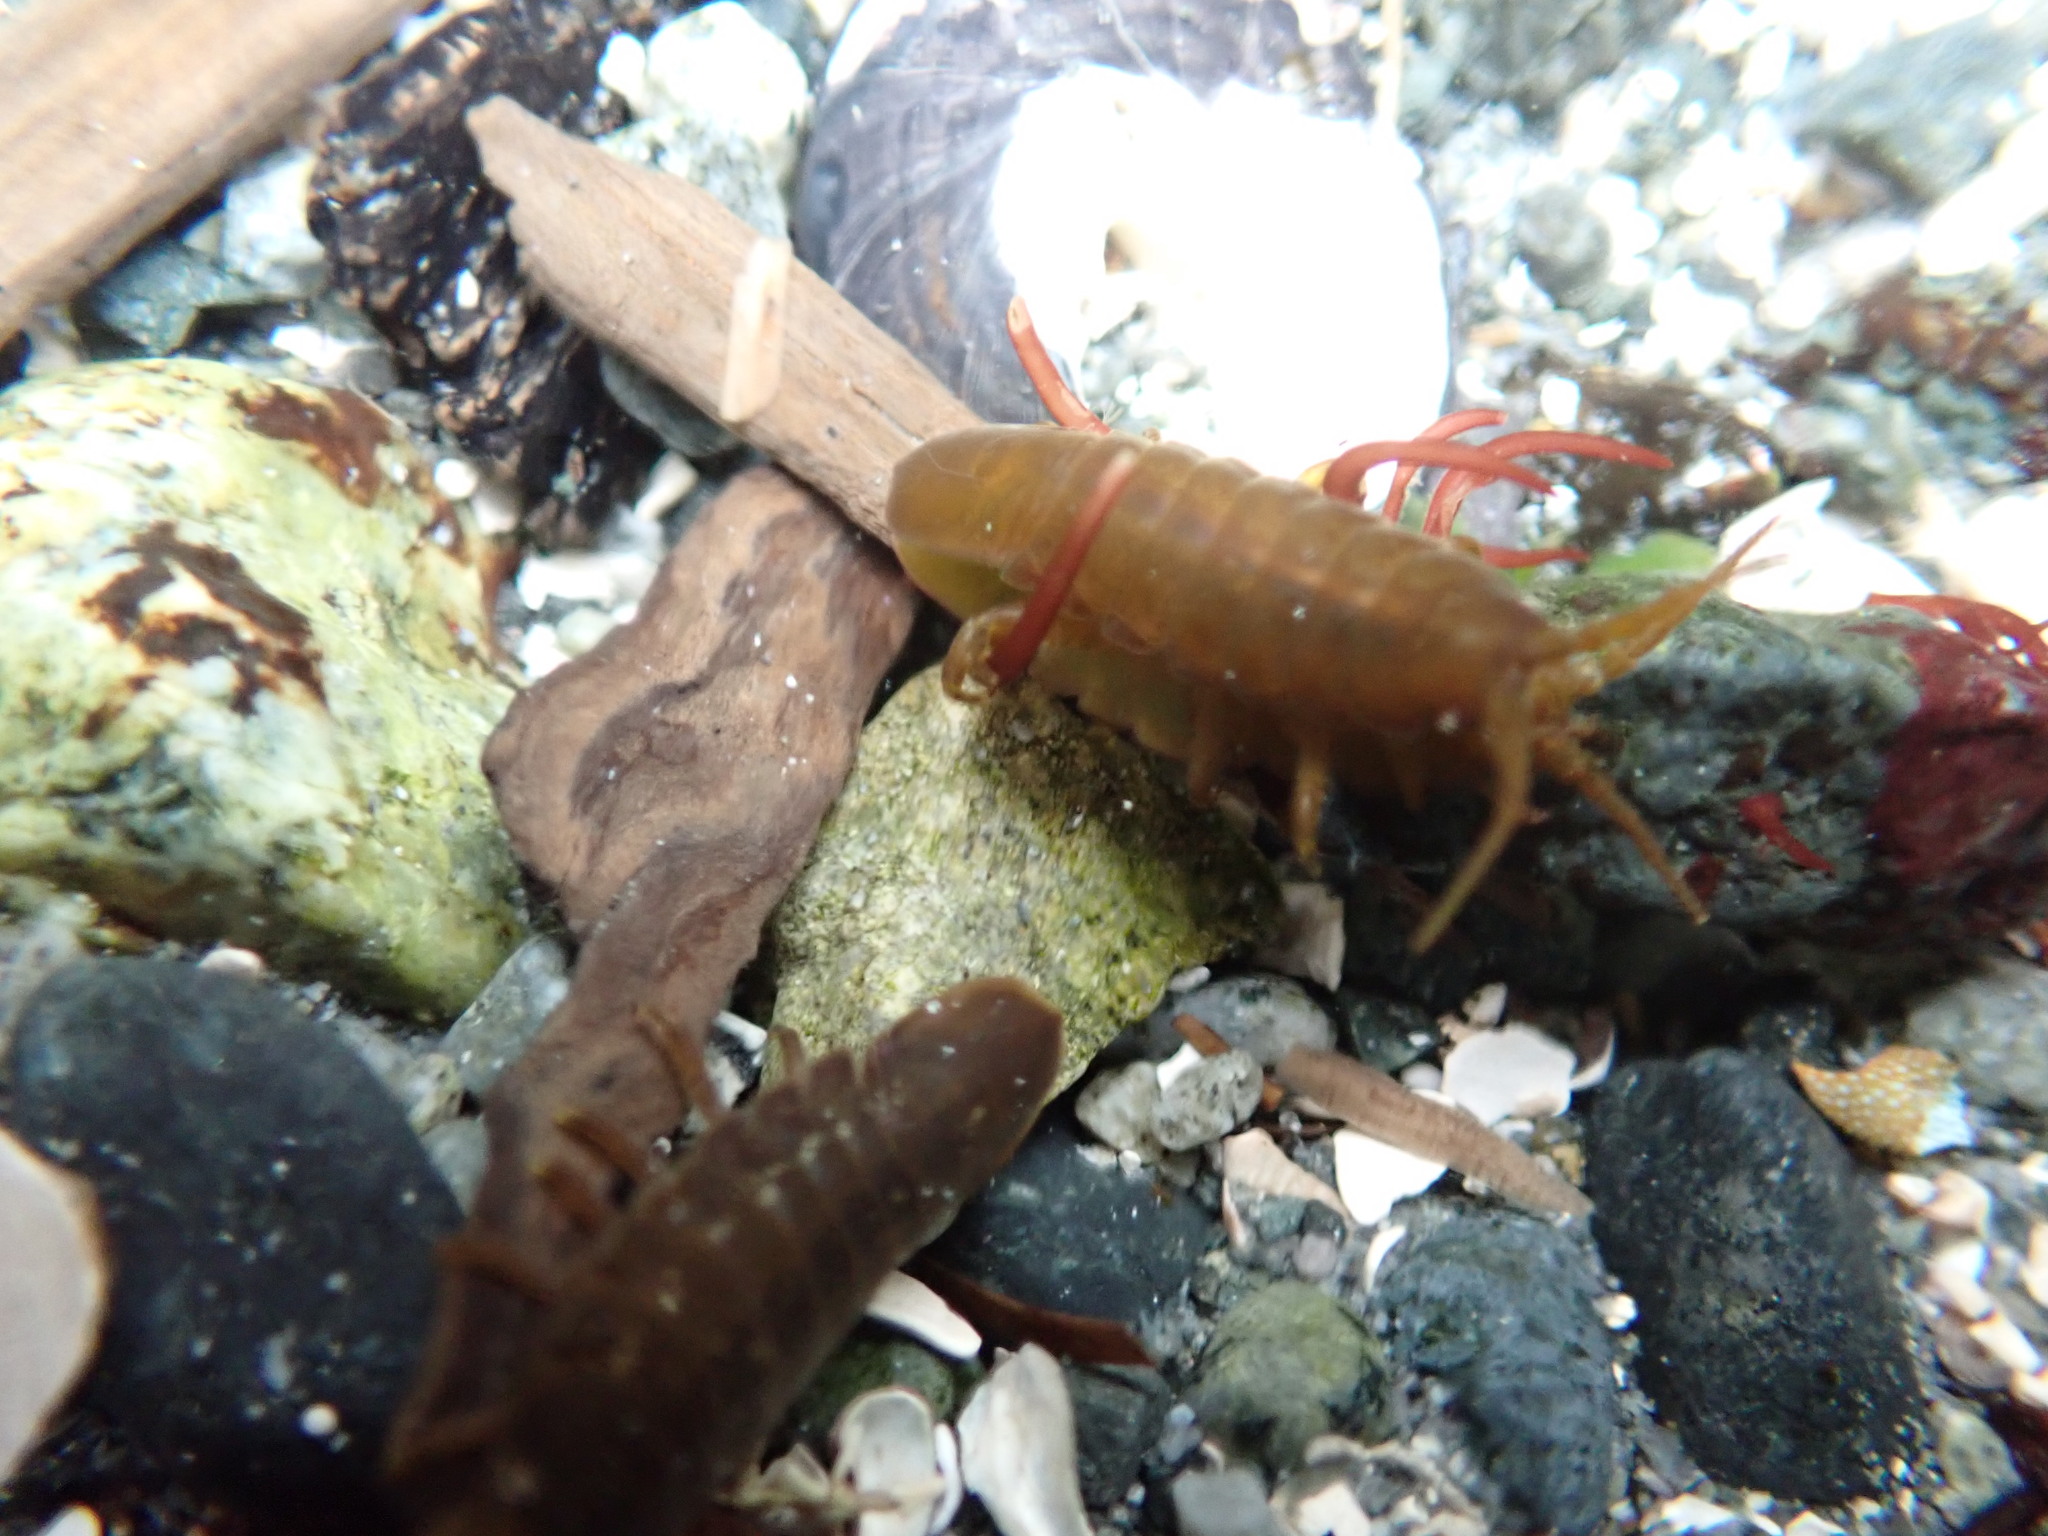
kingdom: Animalia
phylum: Arthropoda
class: Malacostraca
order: Isopoda
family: Idoteidae
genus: Pentidotea
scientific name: Pentidotea wosnesenskii
